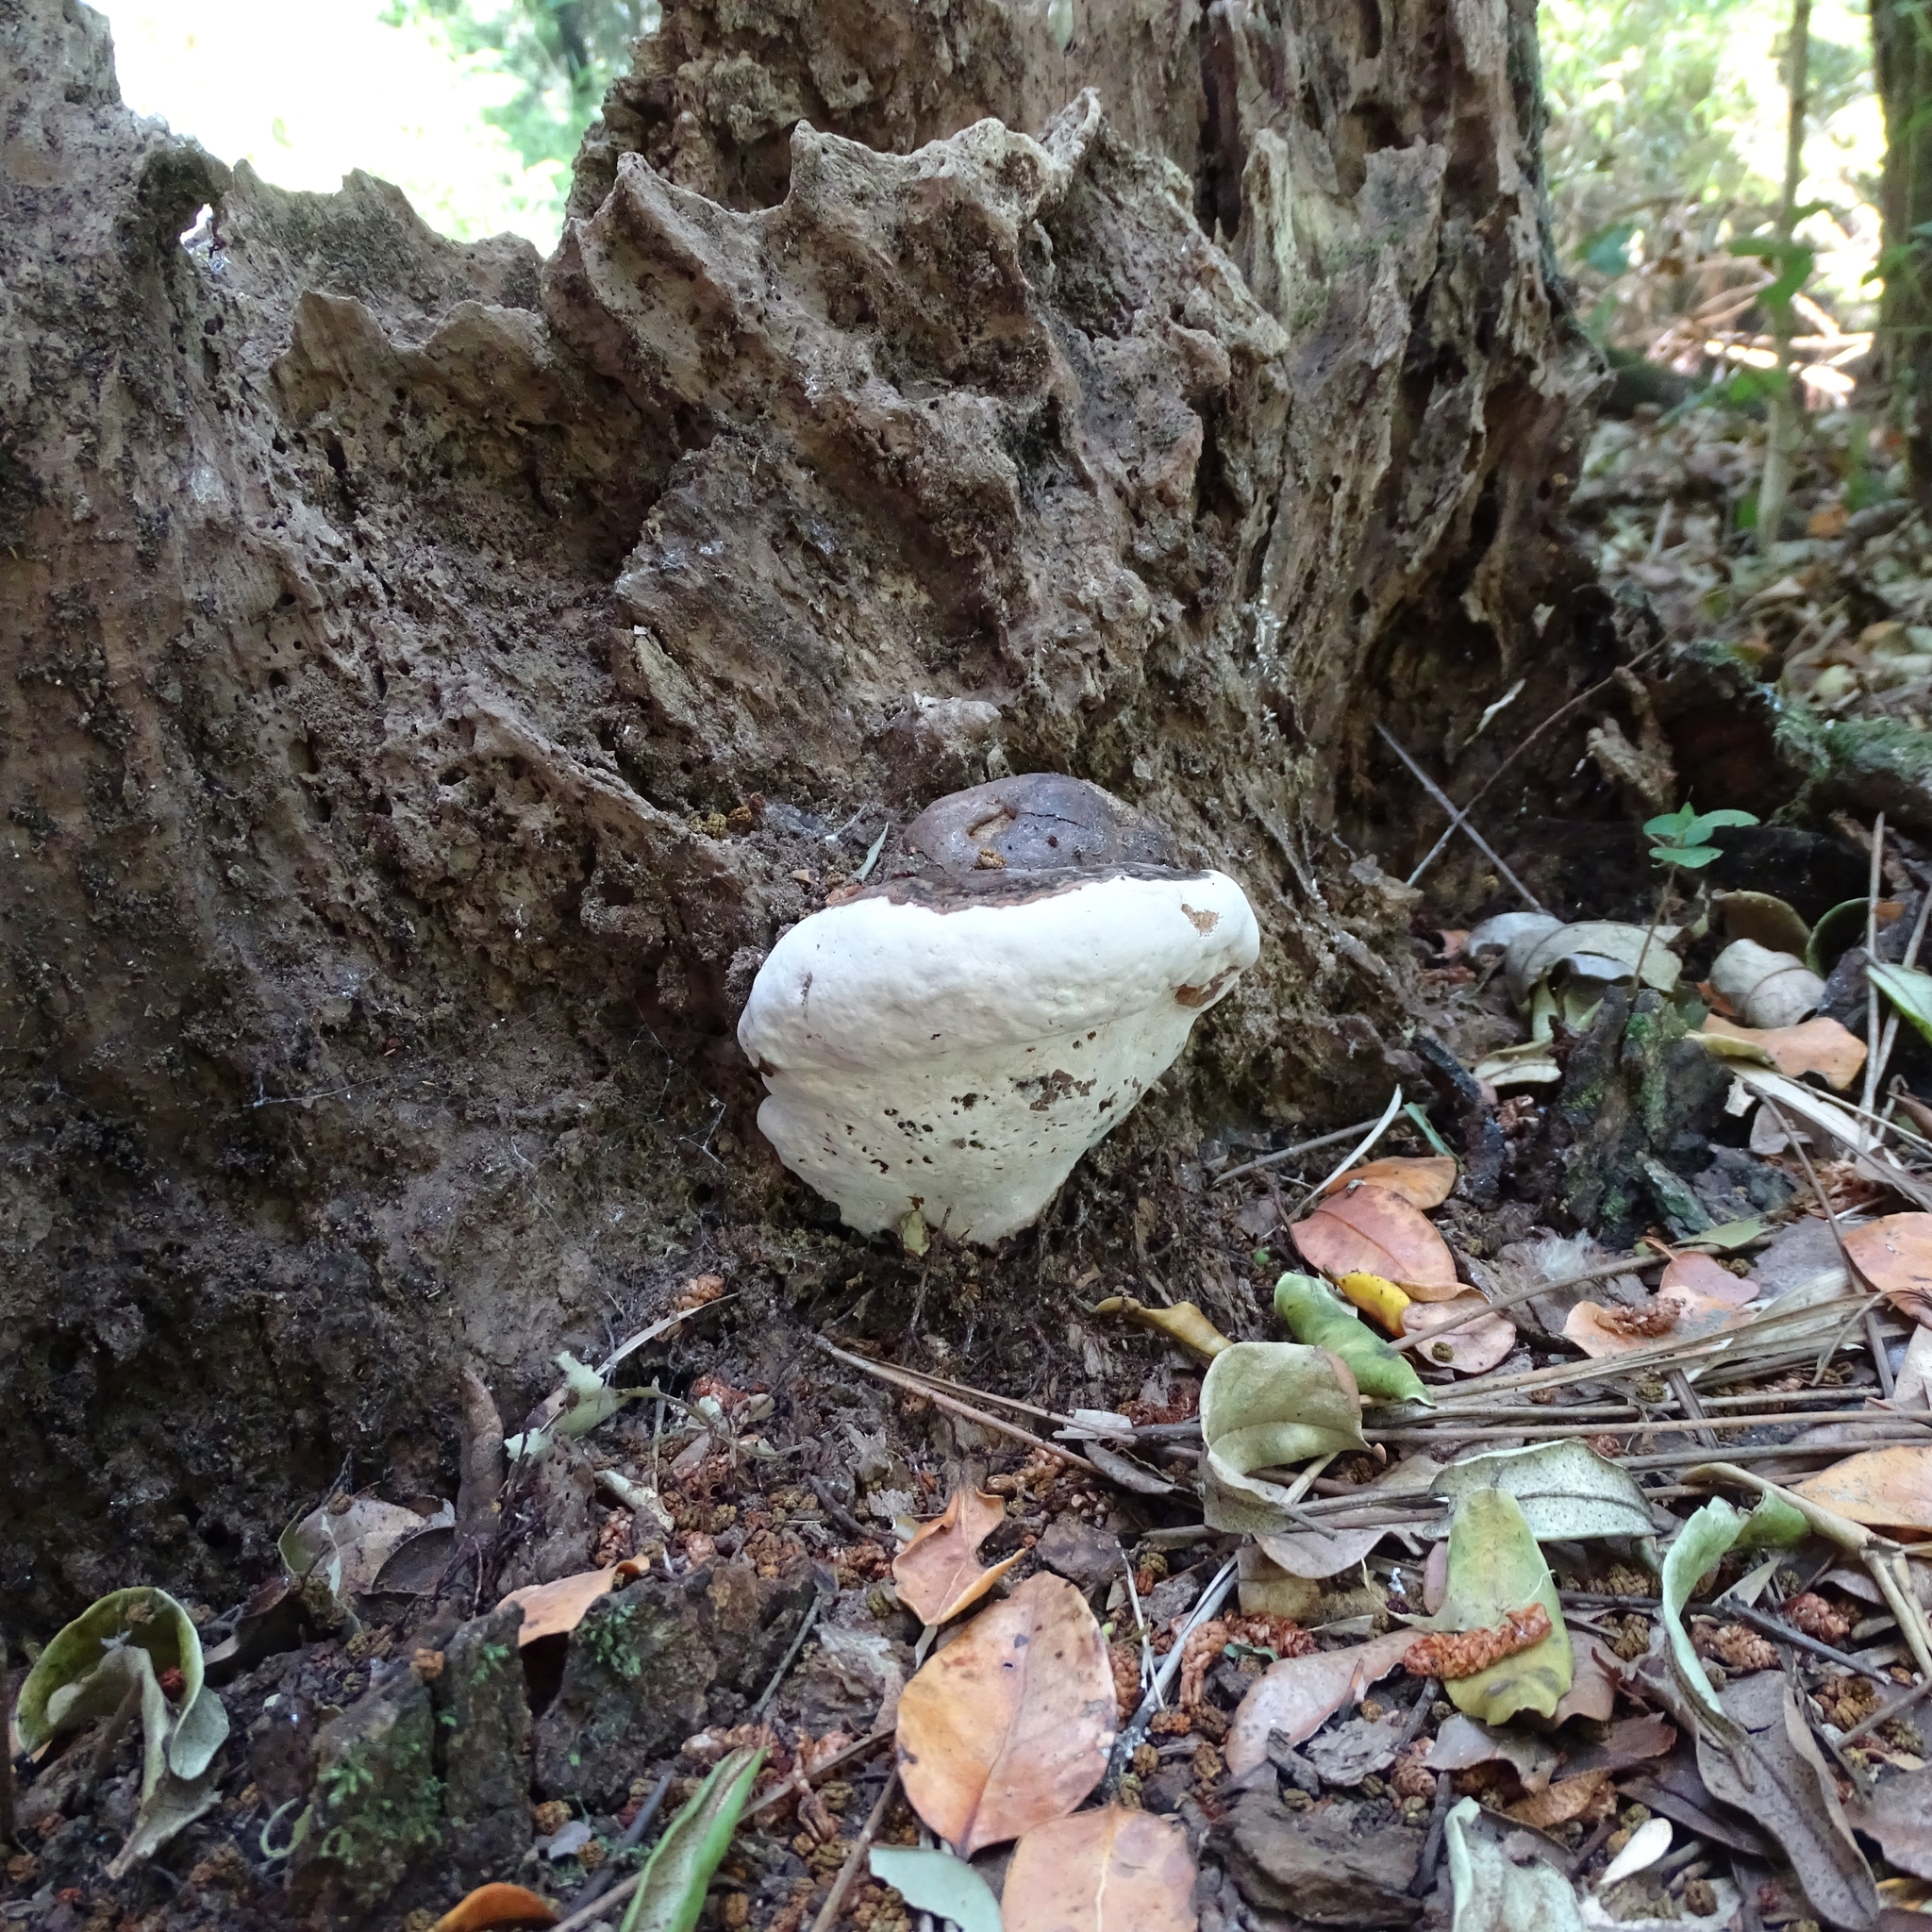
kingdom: Fungi
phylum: Basidiomycota
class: Agaricomycetes
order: Polyporales
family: Polyporaceae
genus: Ganoderma
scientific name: Ganoderma australe
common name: Southern bracket
